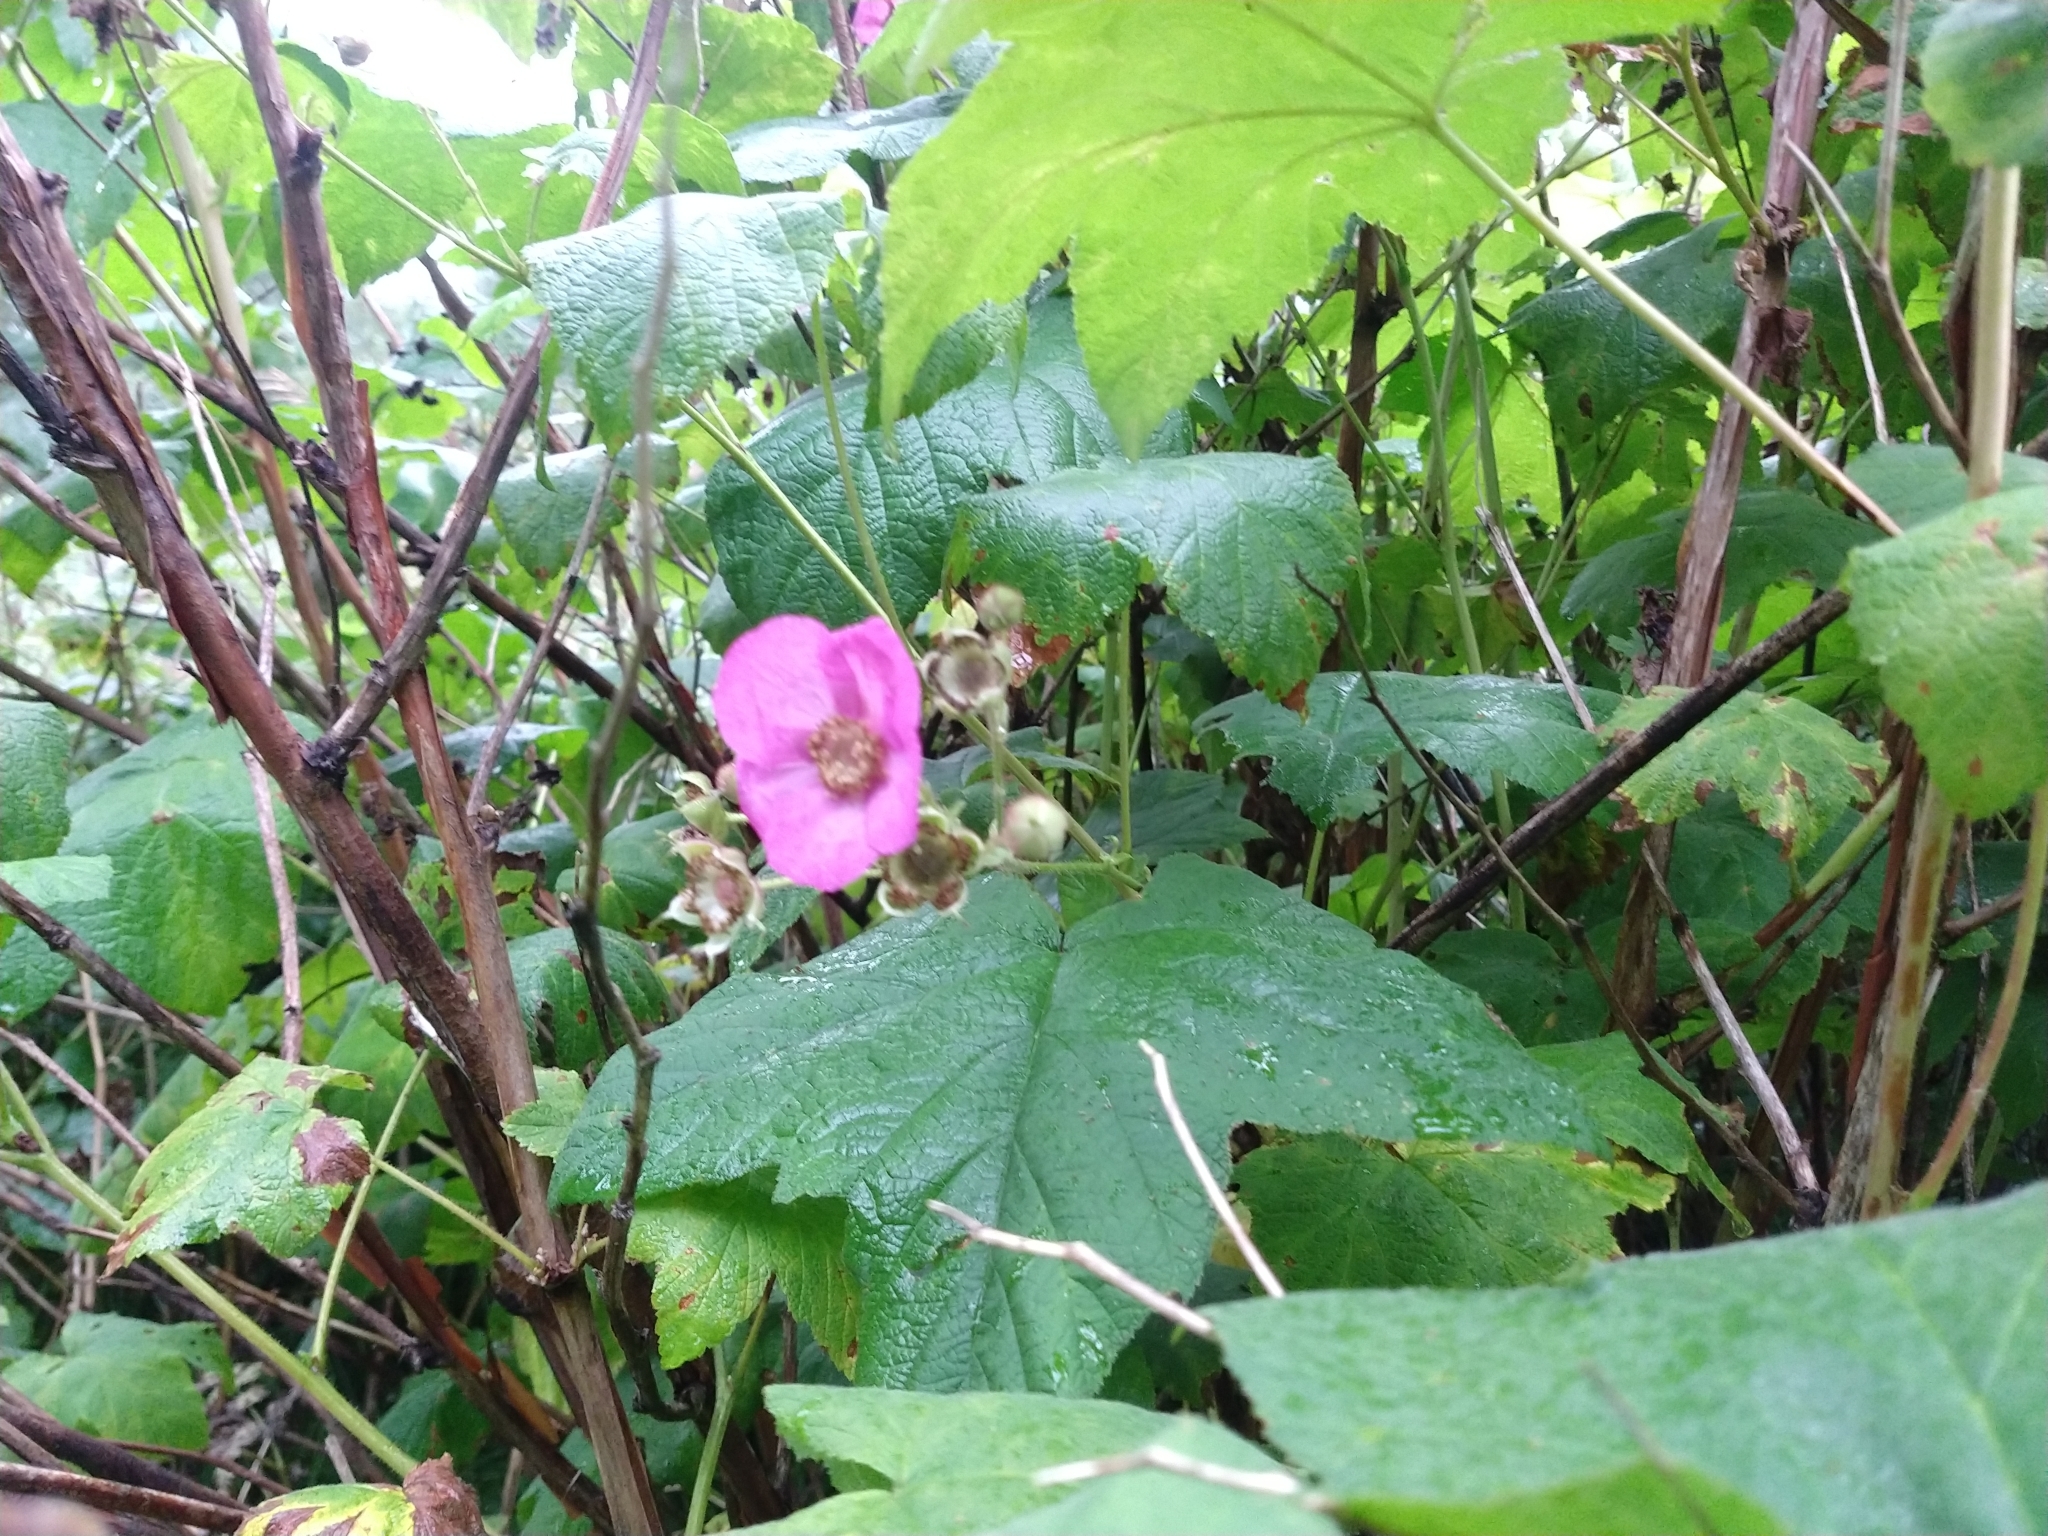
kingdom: Plantae
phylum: Tracheophyta
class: Magnoliopsida
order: Rosales
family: Rosaceae
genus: Rubus
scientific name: Rubus odoratus
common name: Purple-flowered raspberry
